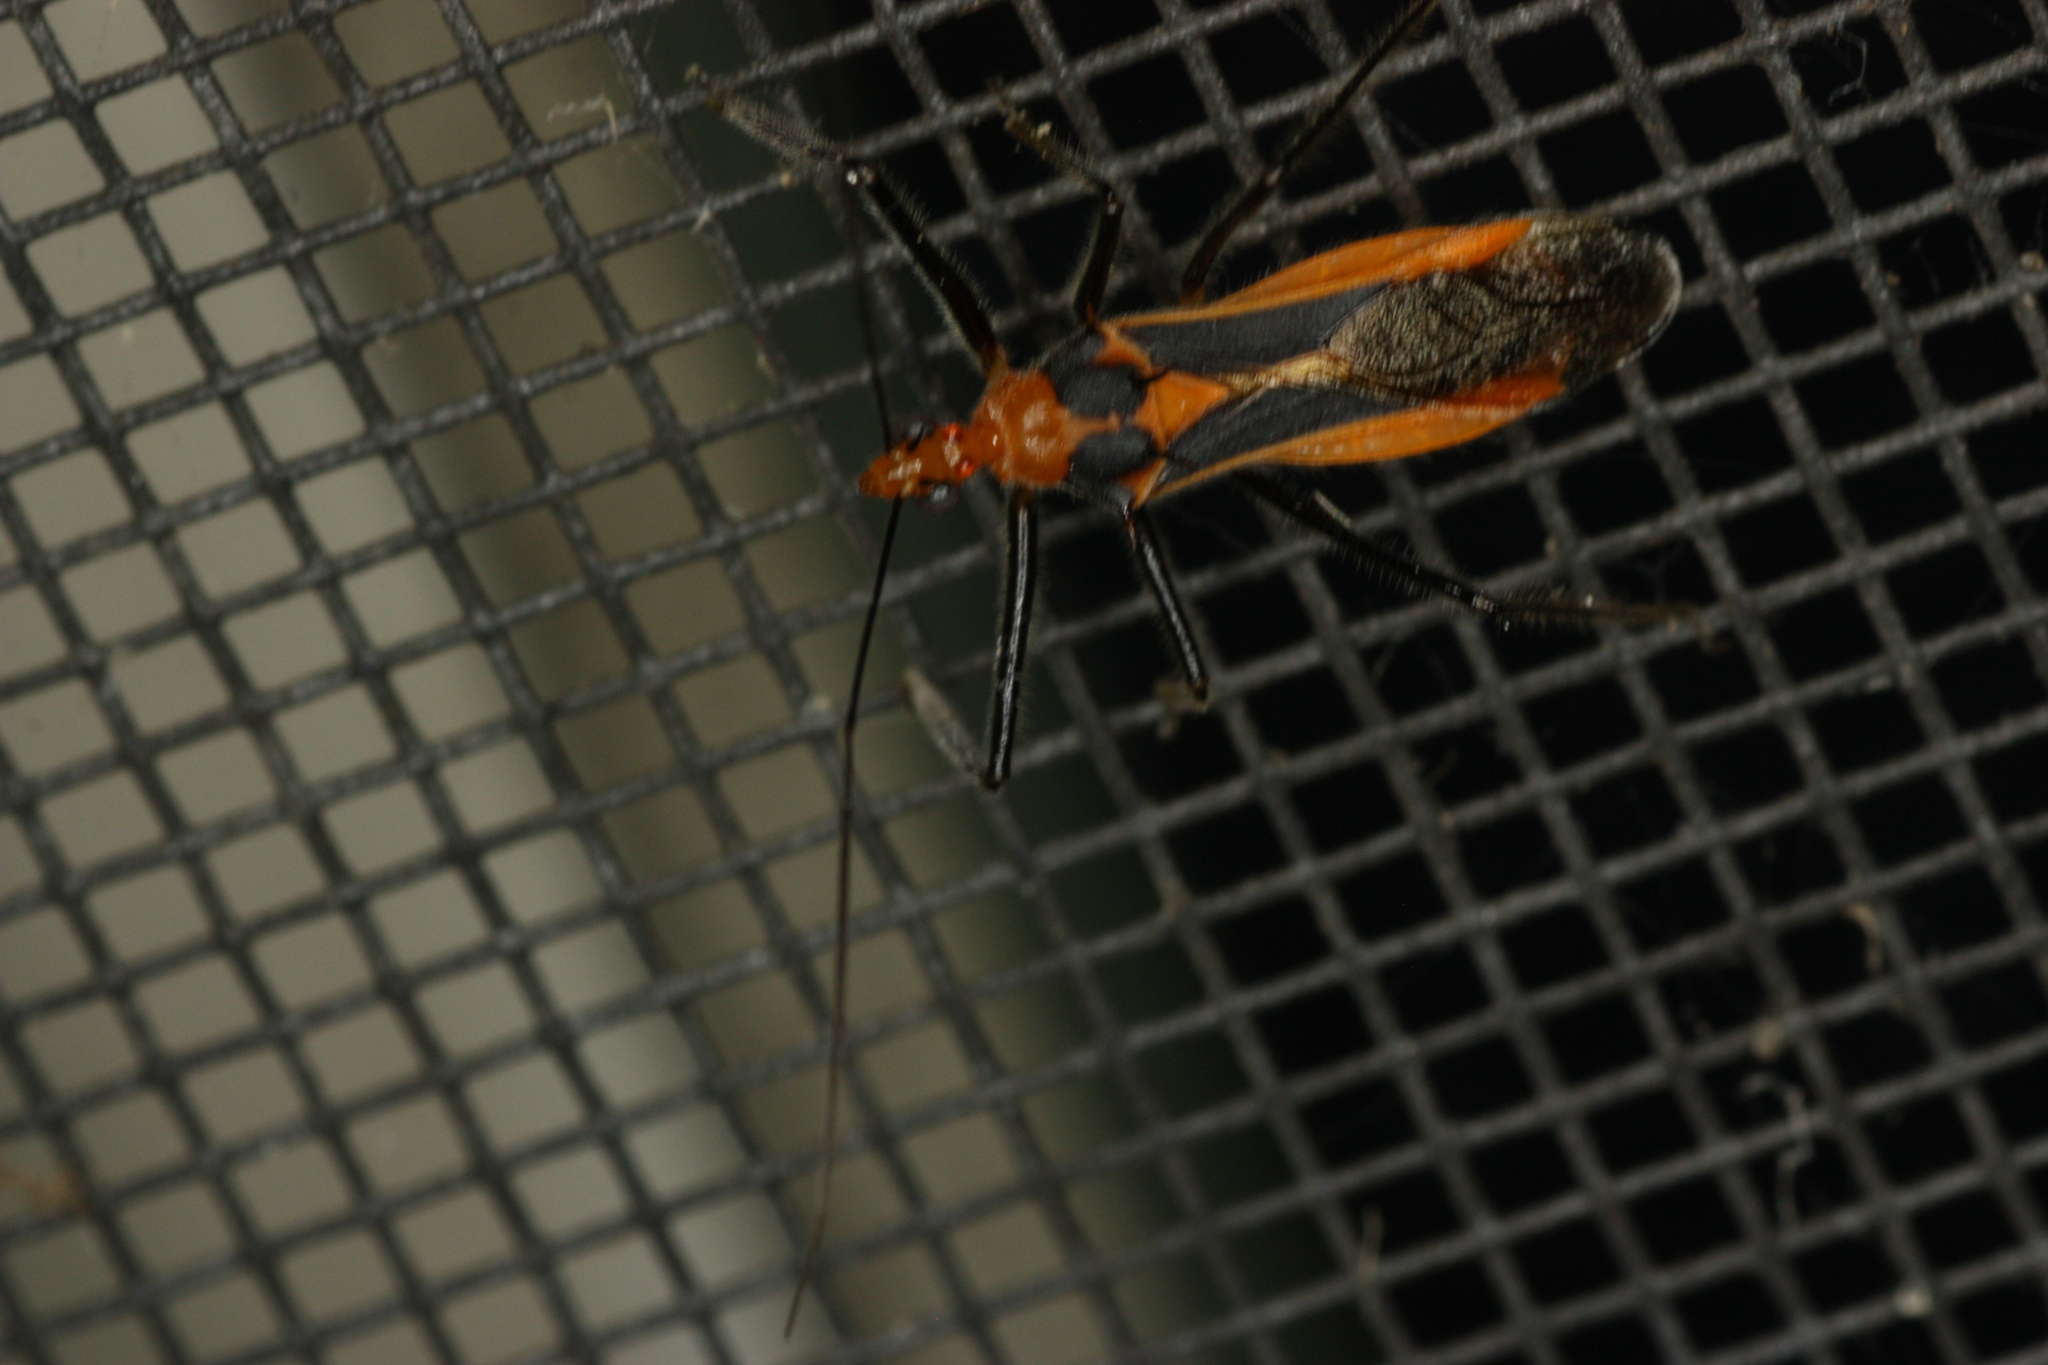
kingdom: Animalia
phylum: Arthropoda
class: Insecta
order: Hemiptera
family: Reduviidae
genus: Repipta
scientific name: Repipta taurus
